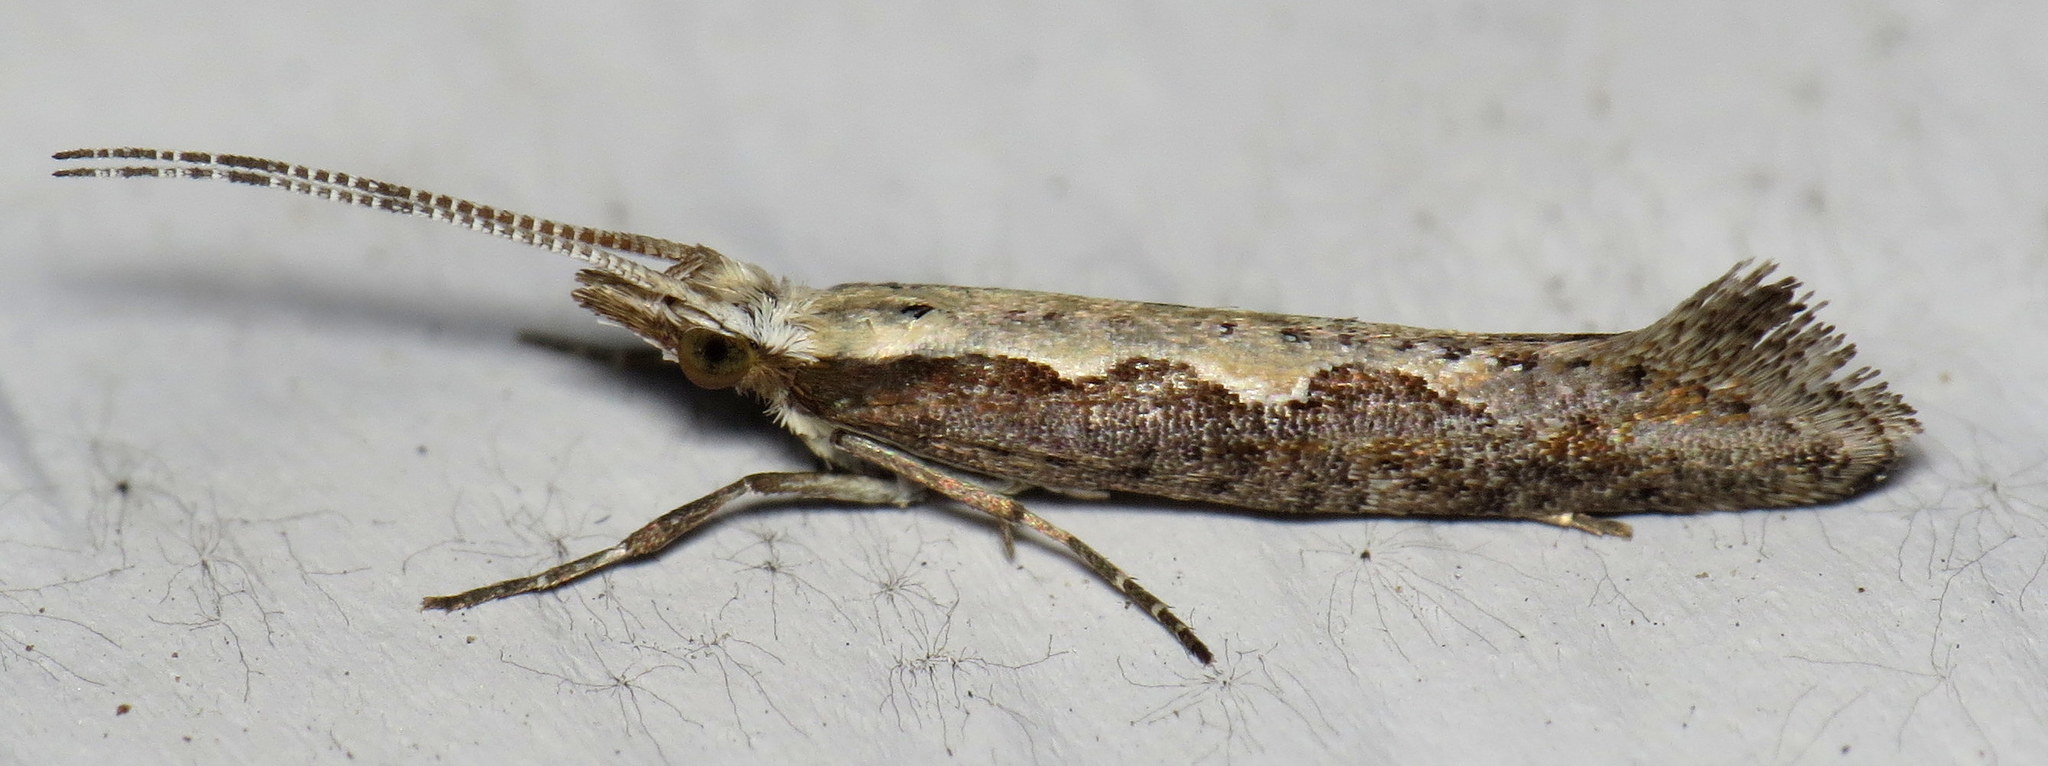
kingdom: Animalia
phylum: Arthropoda
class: Insecta
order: Lepidoptera
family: Plutellidae
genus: Plutella
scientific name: Plutella xylostella
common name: Diamond-back moth
